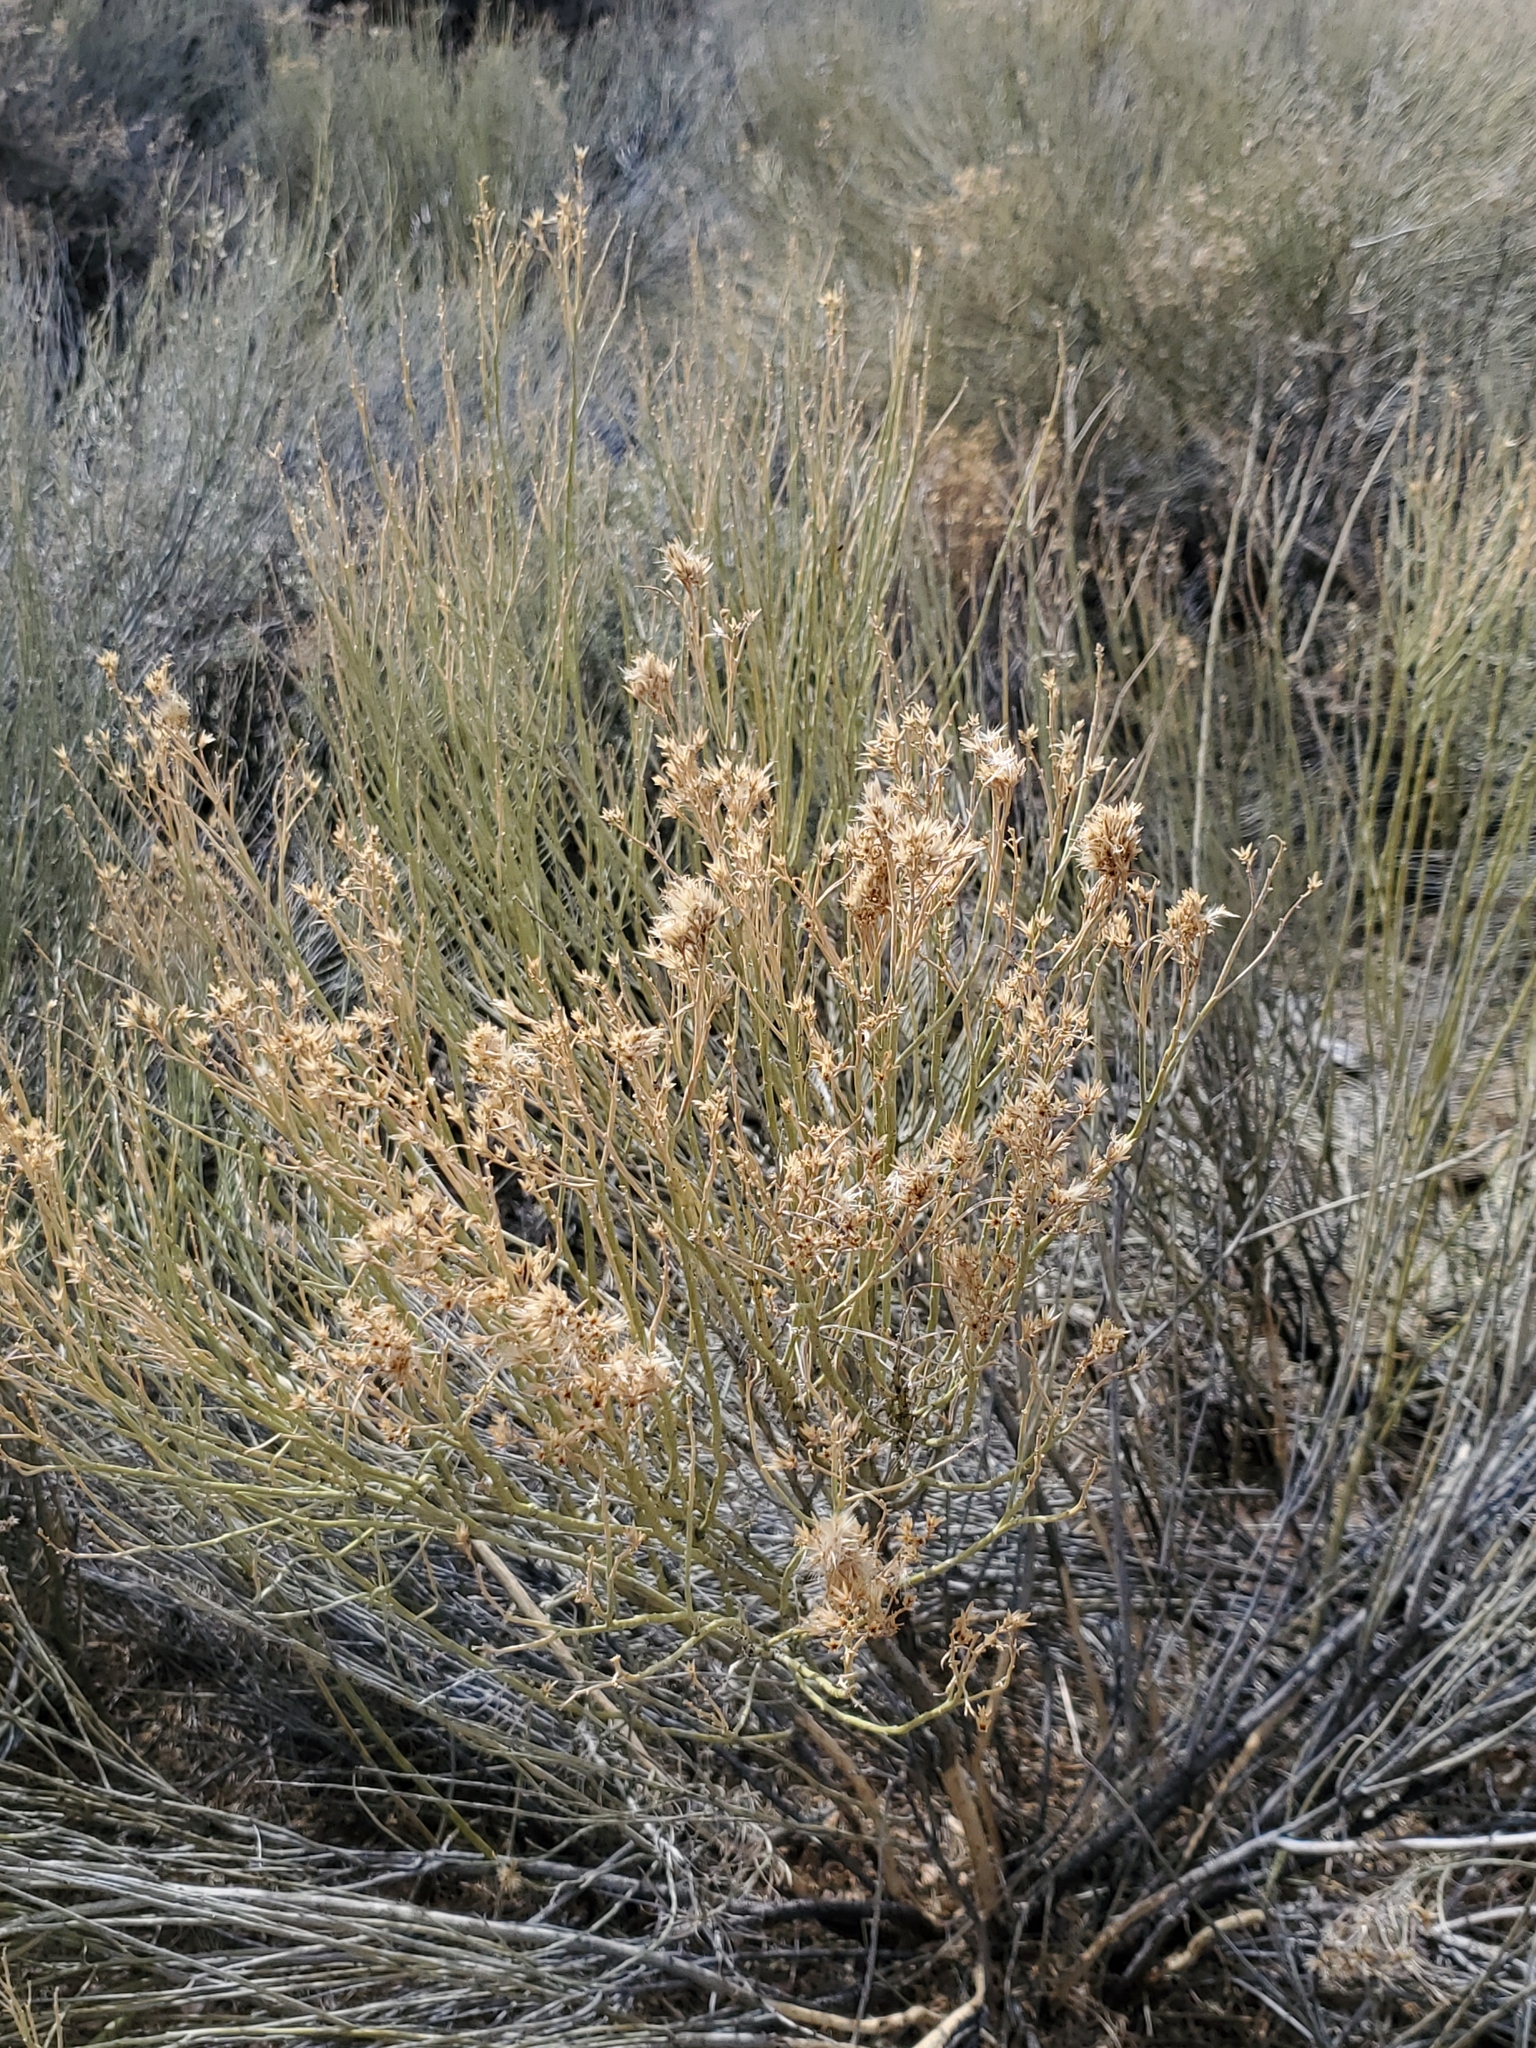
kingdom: Plantae
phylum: Tracheophyta
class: Magnoliopsida
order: Asterales
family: Asteraceae
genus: Ericameria
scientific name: Ericameria nauseosa
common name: Rubber rabbitbrush
